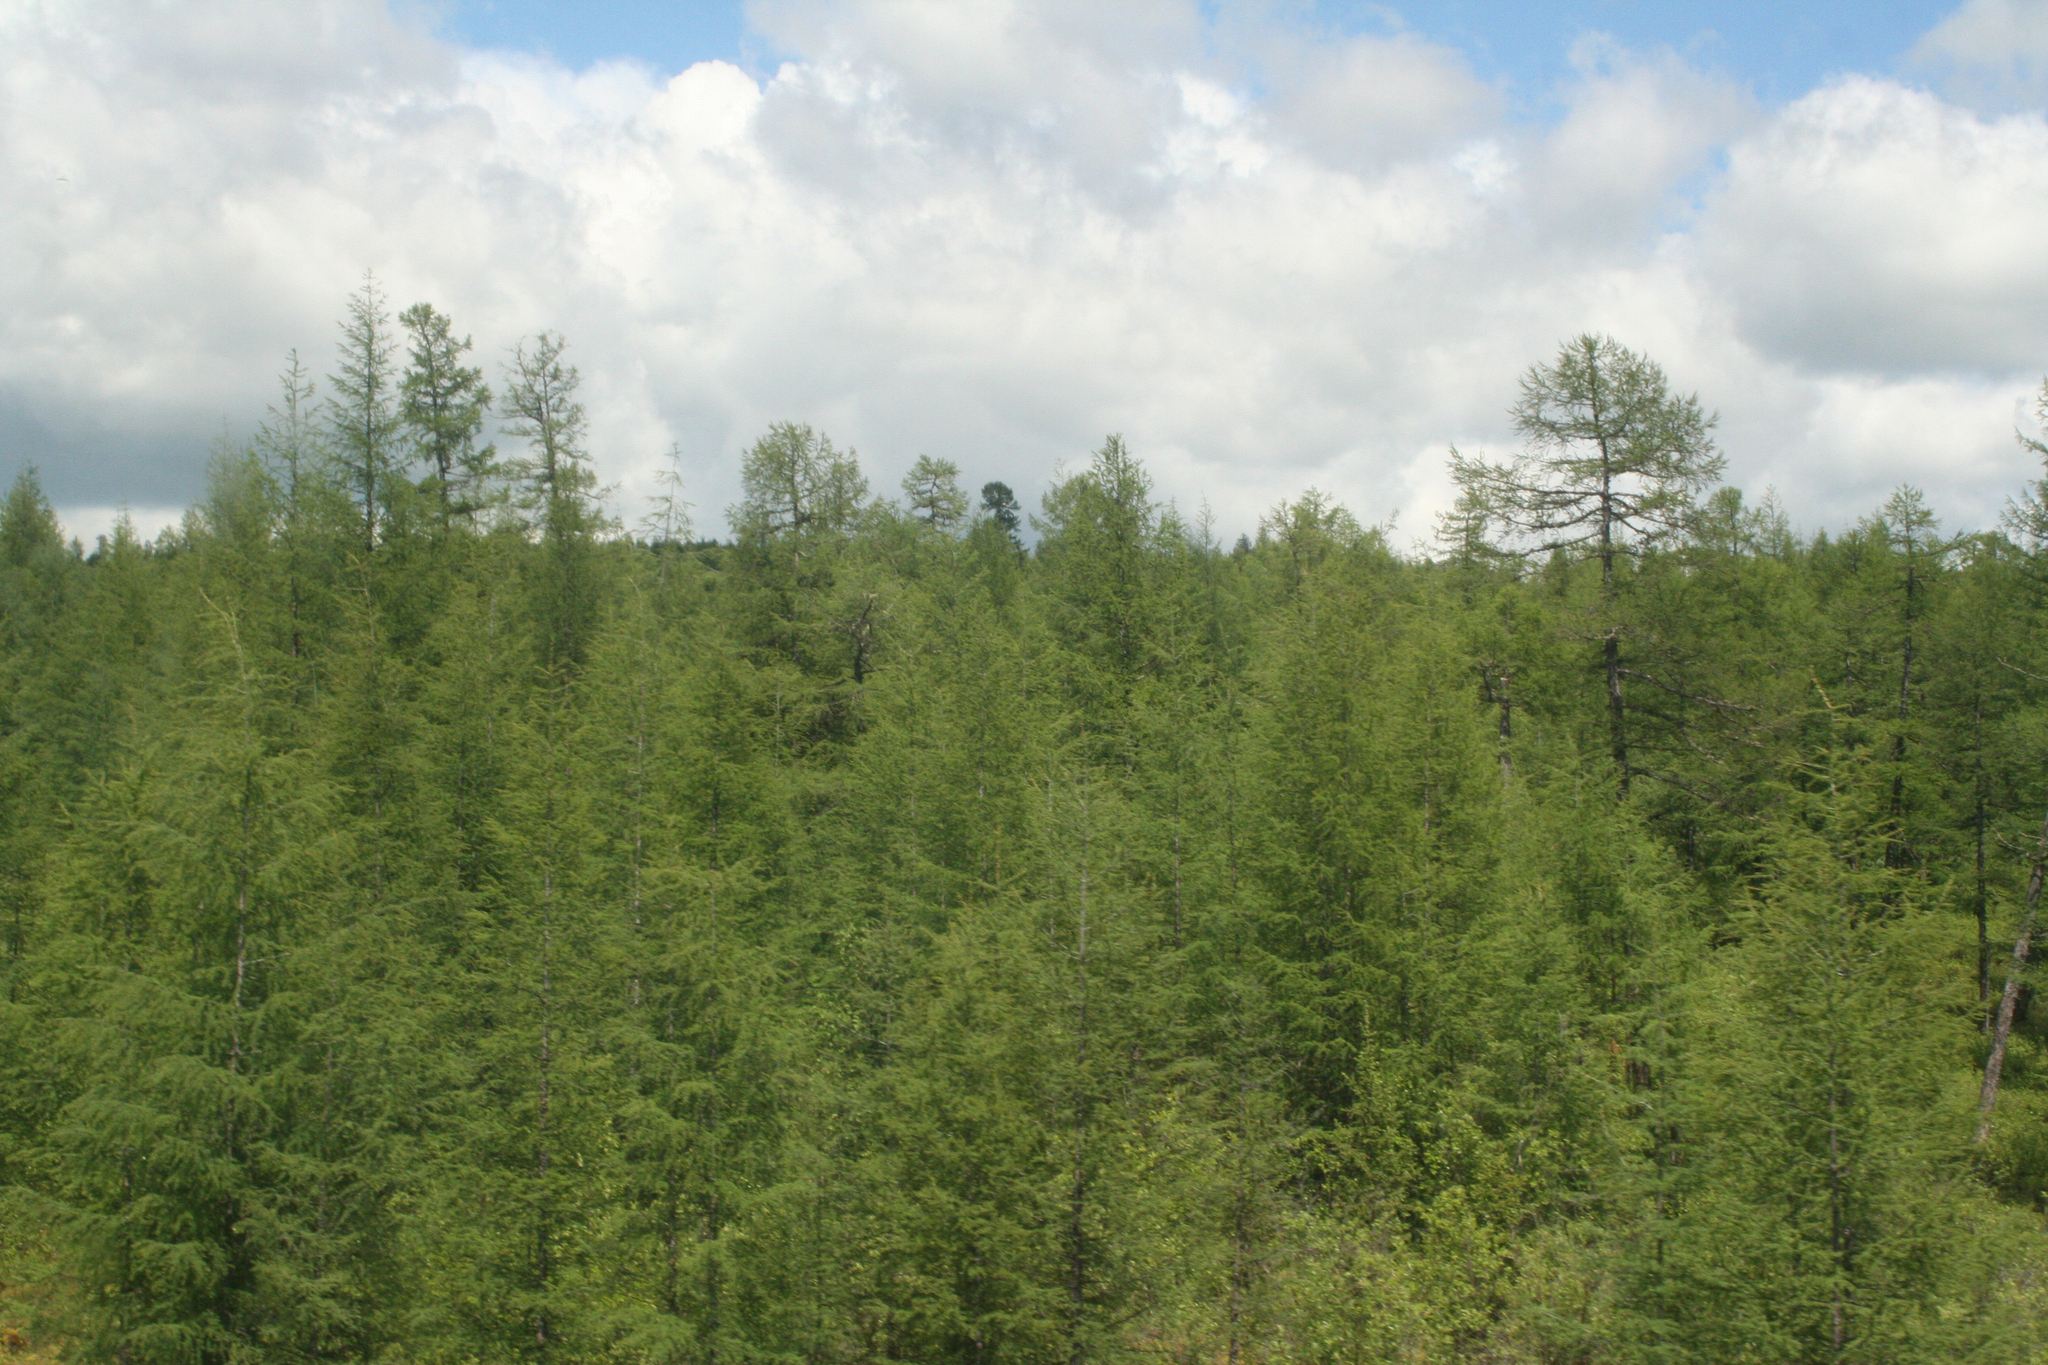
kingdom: Plantae
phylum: Tracheophyta
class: Pinopsida
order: Pinales
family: Pinaceae
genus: Larix
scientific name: Larix gmelinii
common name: Dahurian larch
